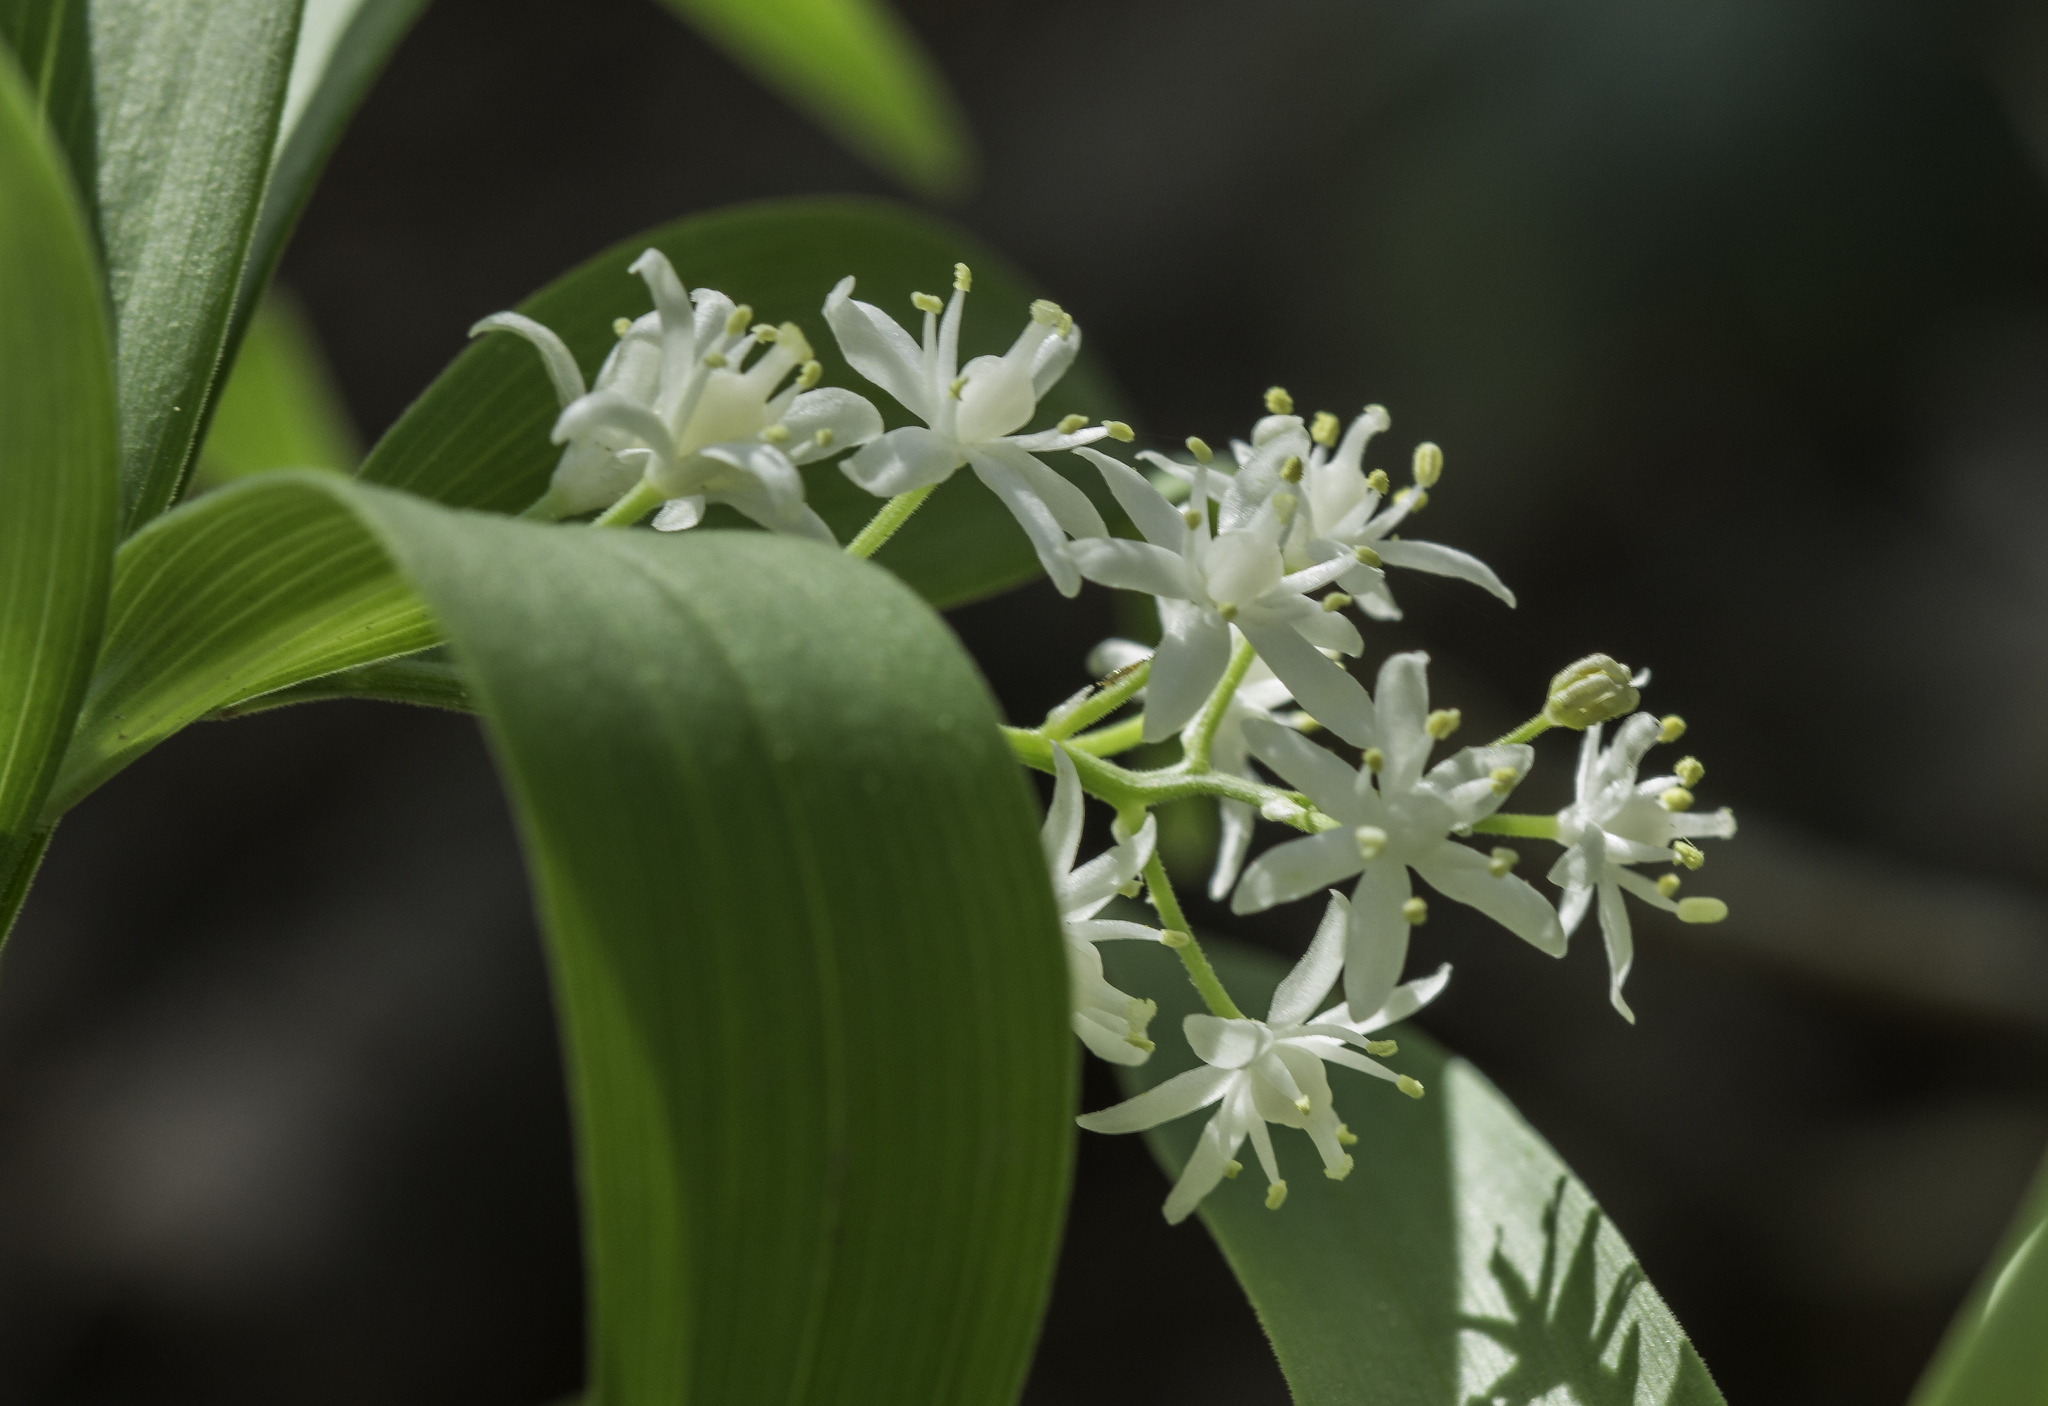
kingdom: Plantae
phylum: Tracheophyta
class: Liliopsida
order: Asparagales
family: Asparagaceae
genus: Maianthemum
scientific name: Maianthemum stellatum
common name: Little false solomon's seal
